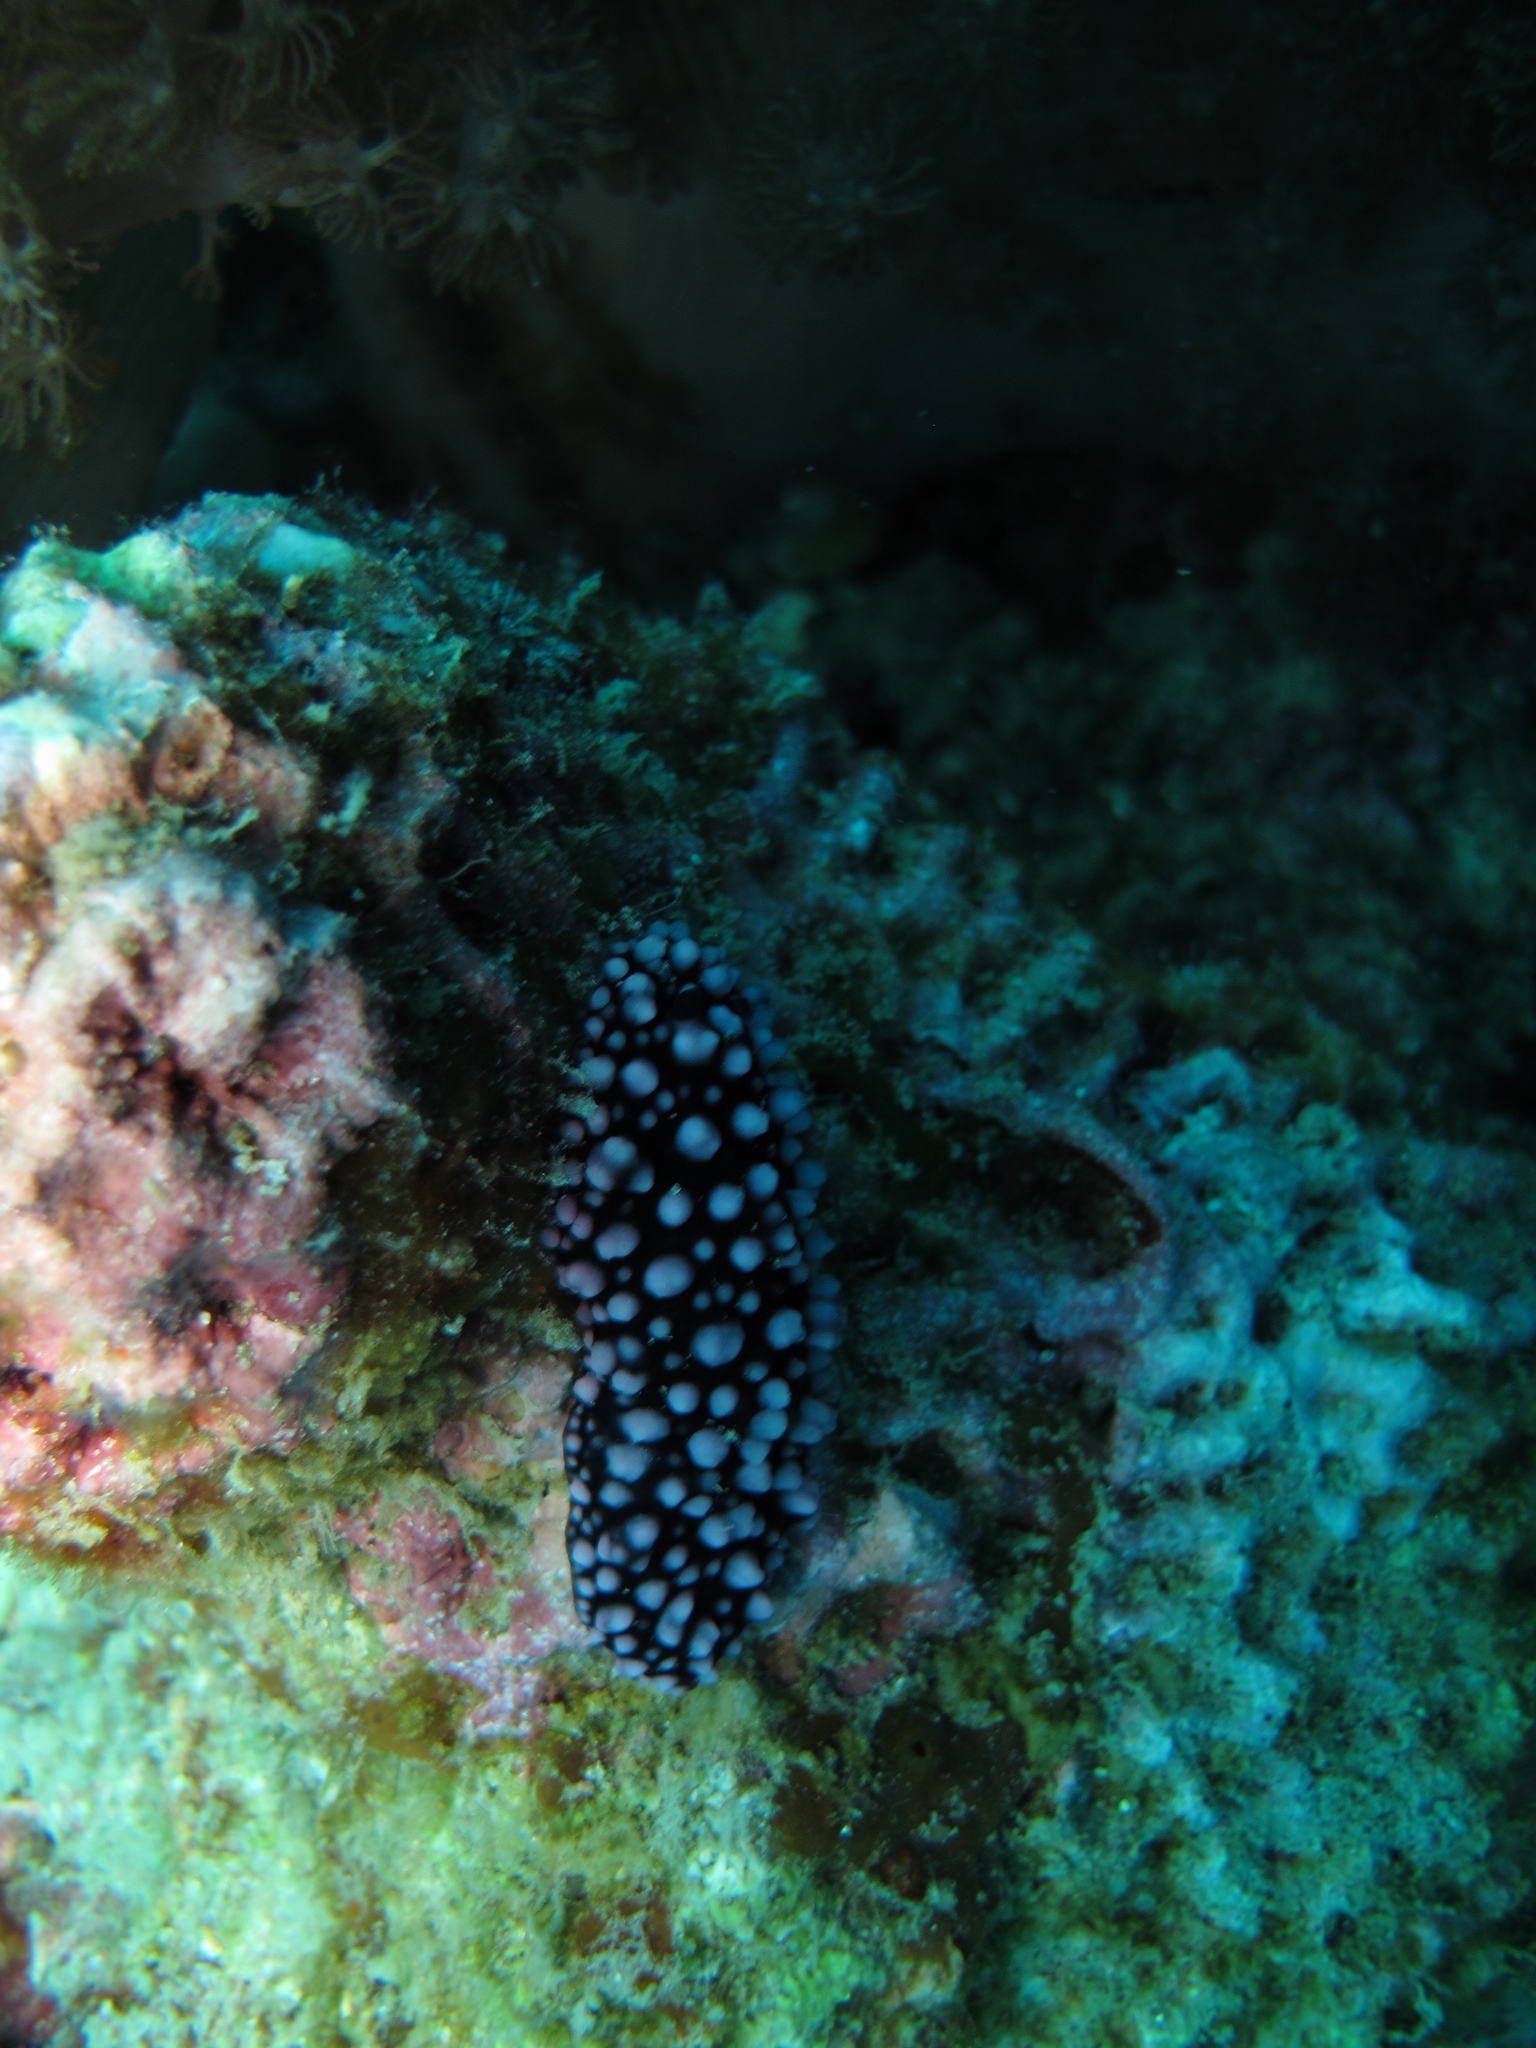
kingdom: Animalia
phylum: Mollusca
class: Gastropoda
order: Nudibranchia
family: Phyllidiidae
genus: Phyllidiella
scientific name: Phyllidiella nigra
